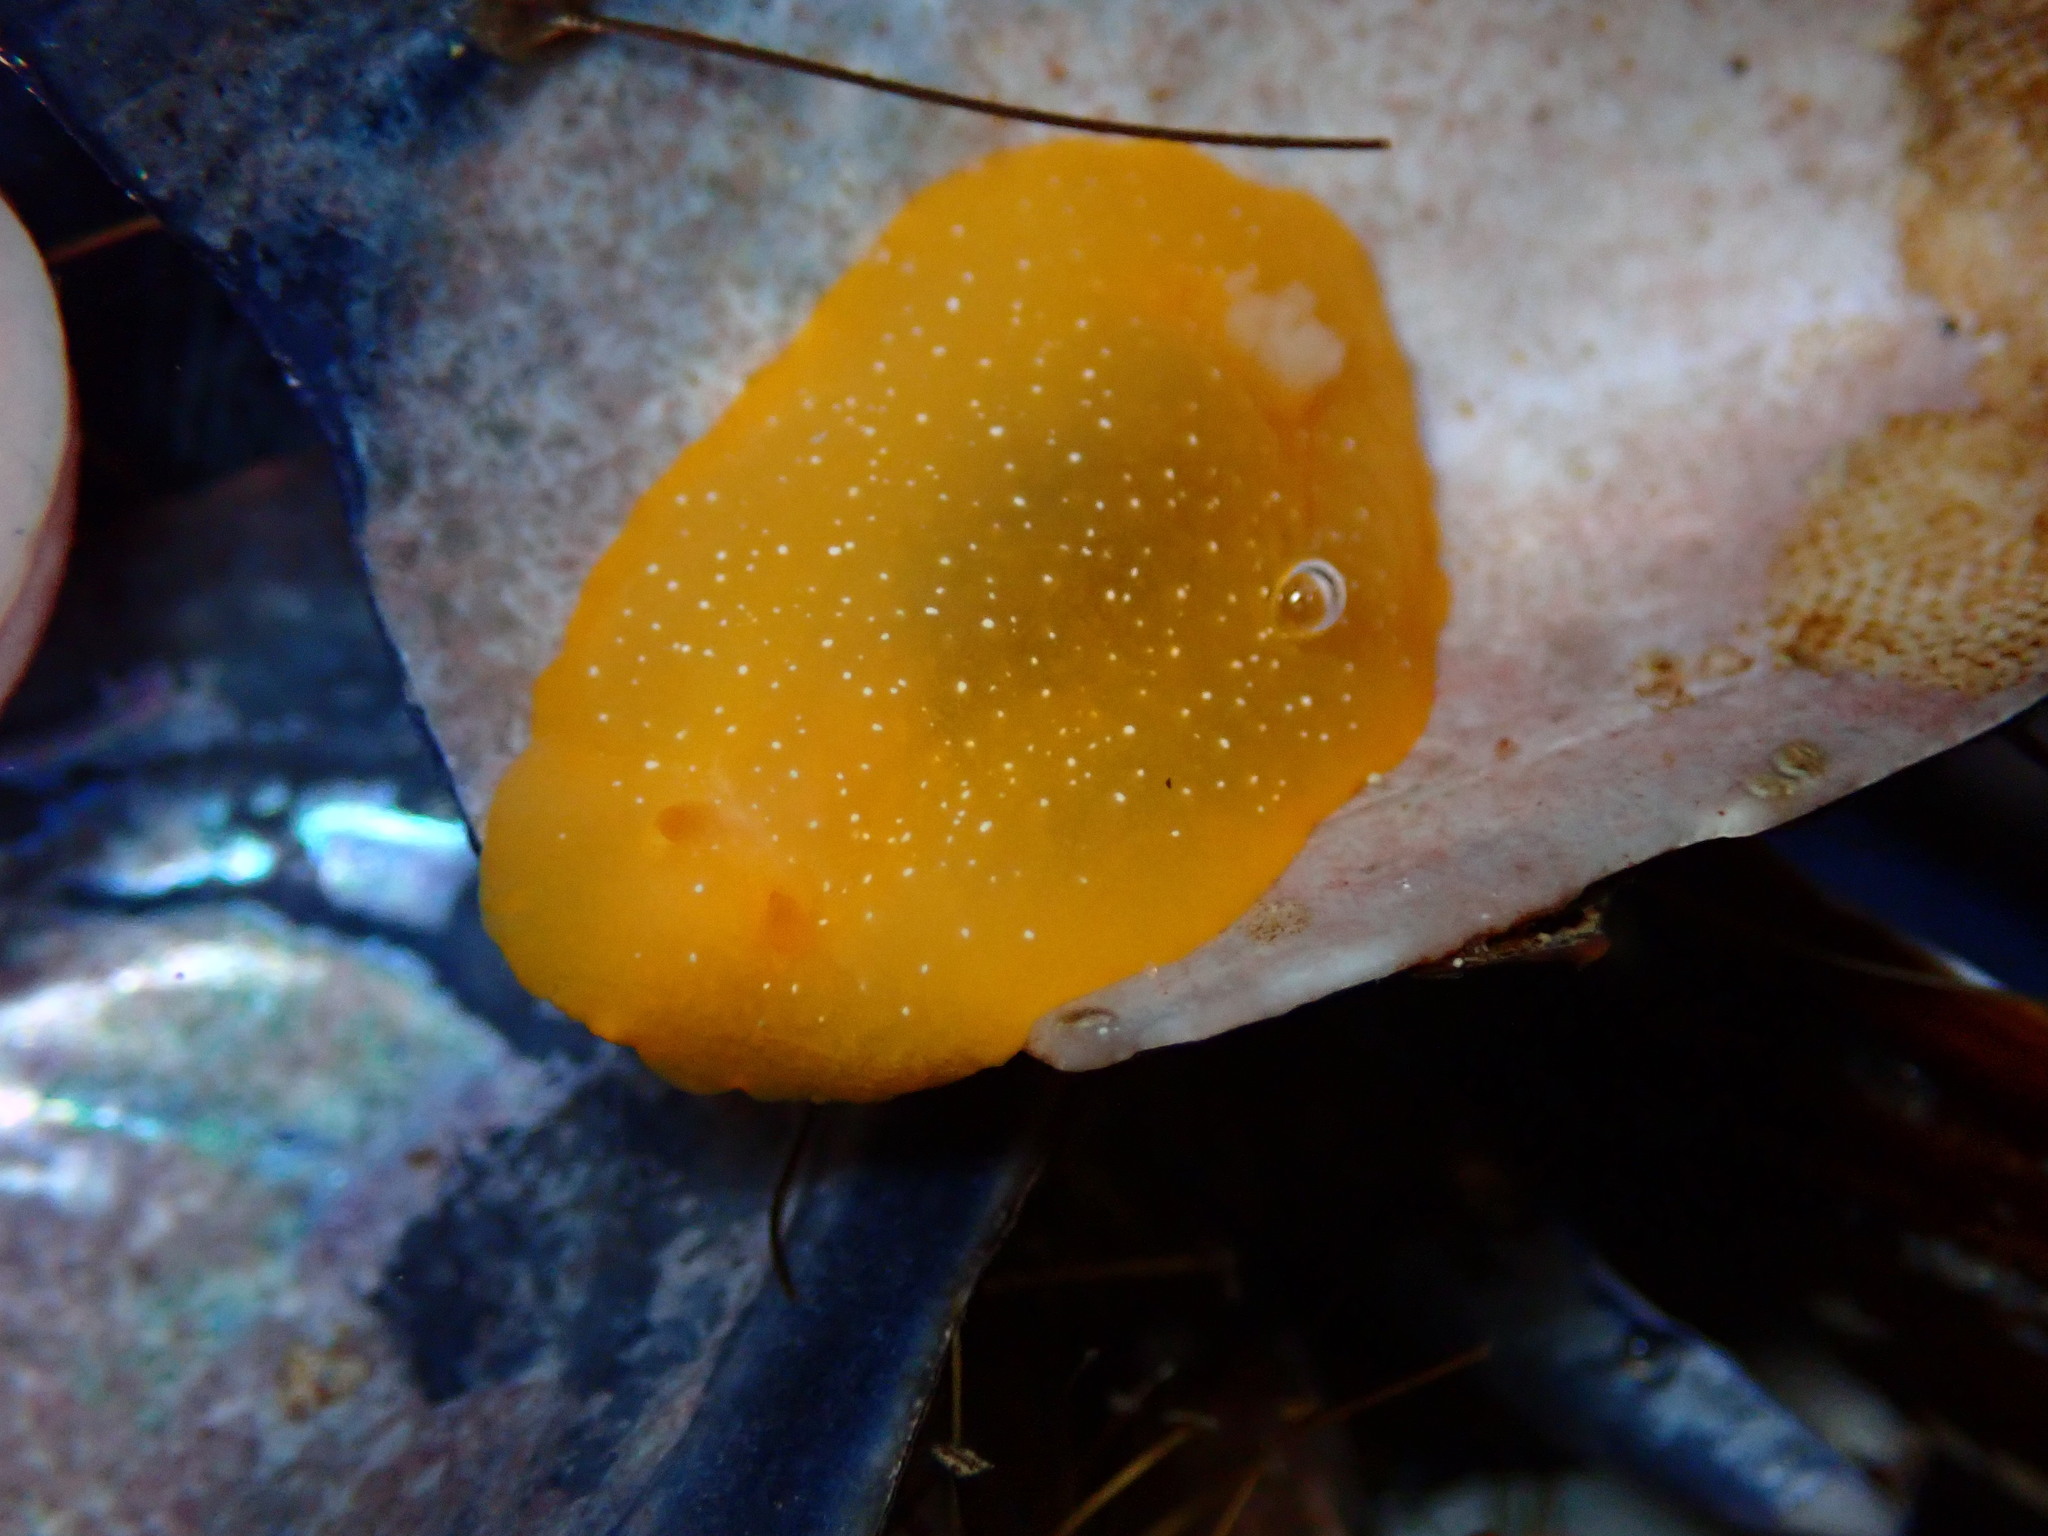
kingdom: Animalia
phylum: Mollusca
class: Gastropoda
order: Nudibranchia
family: Dendrodorididae
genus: Doriopsilla
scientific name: Doriopsilla fulva
